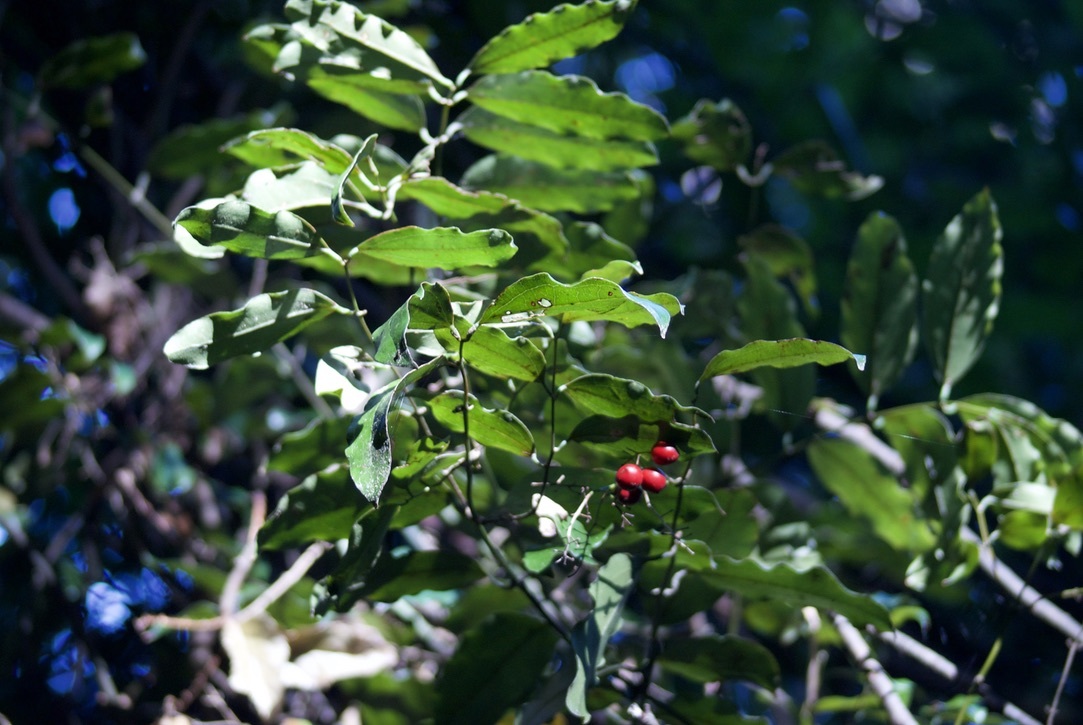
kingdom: Plantae
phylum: Tracheophyta
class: Liliopsida
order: Liliales
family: Ripogonaceae
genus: Ripogonum
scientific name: Ripogonum scandens
